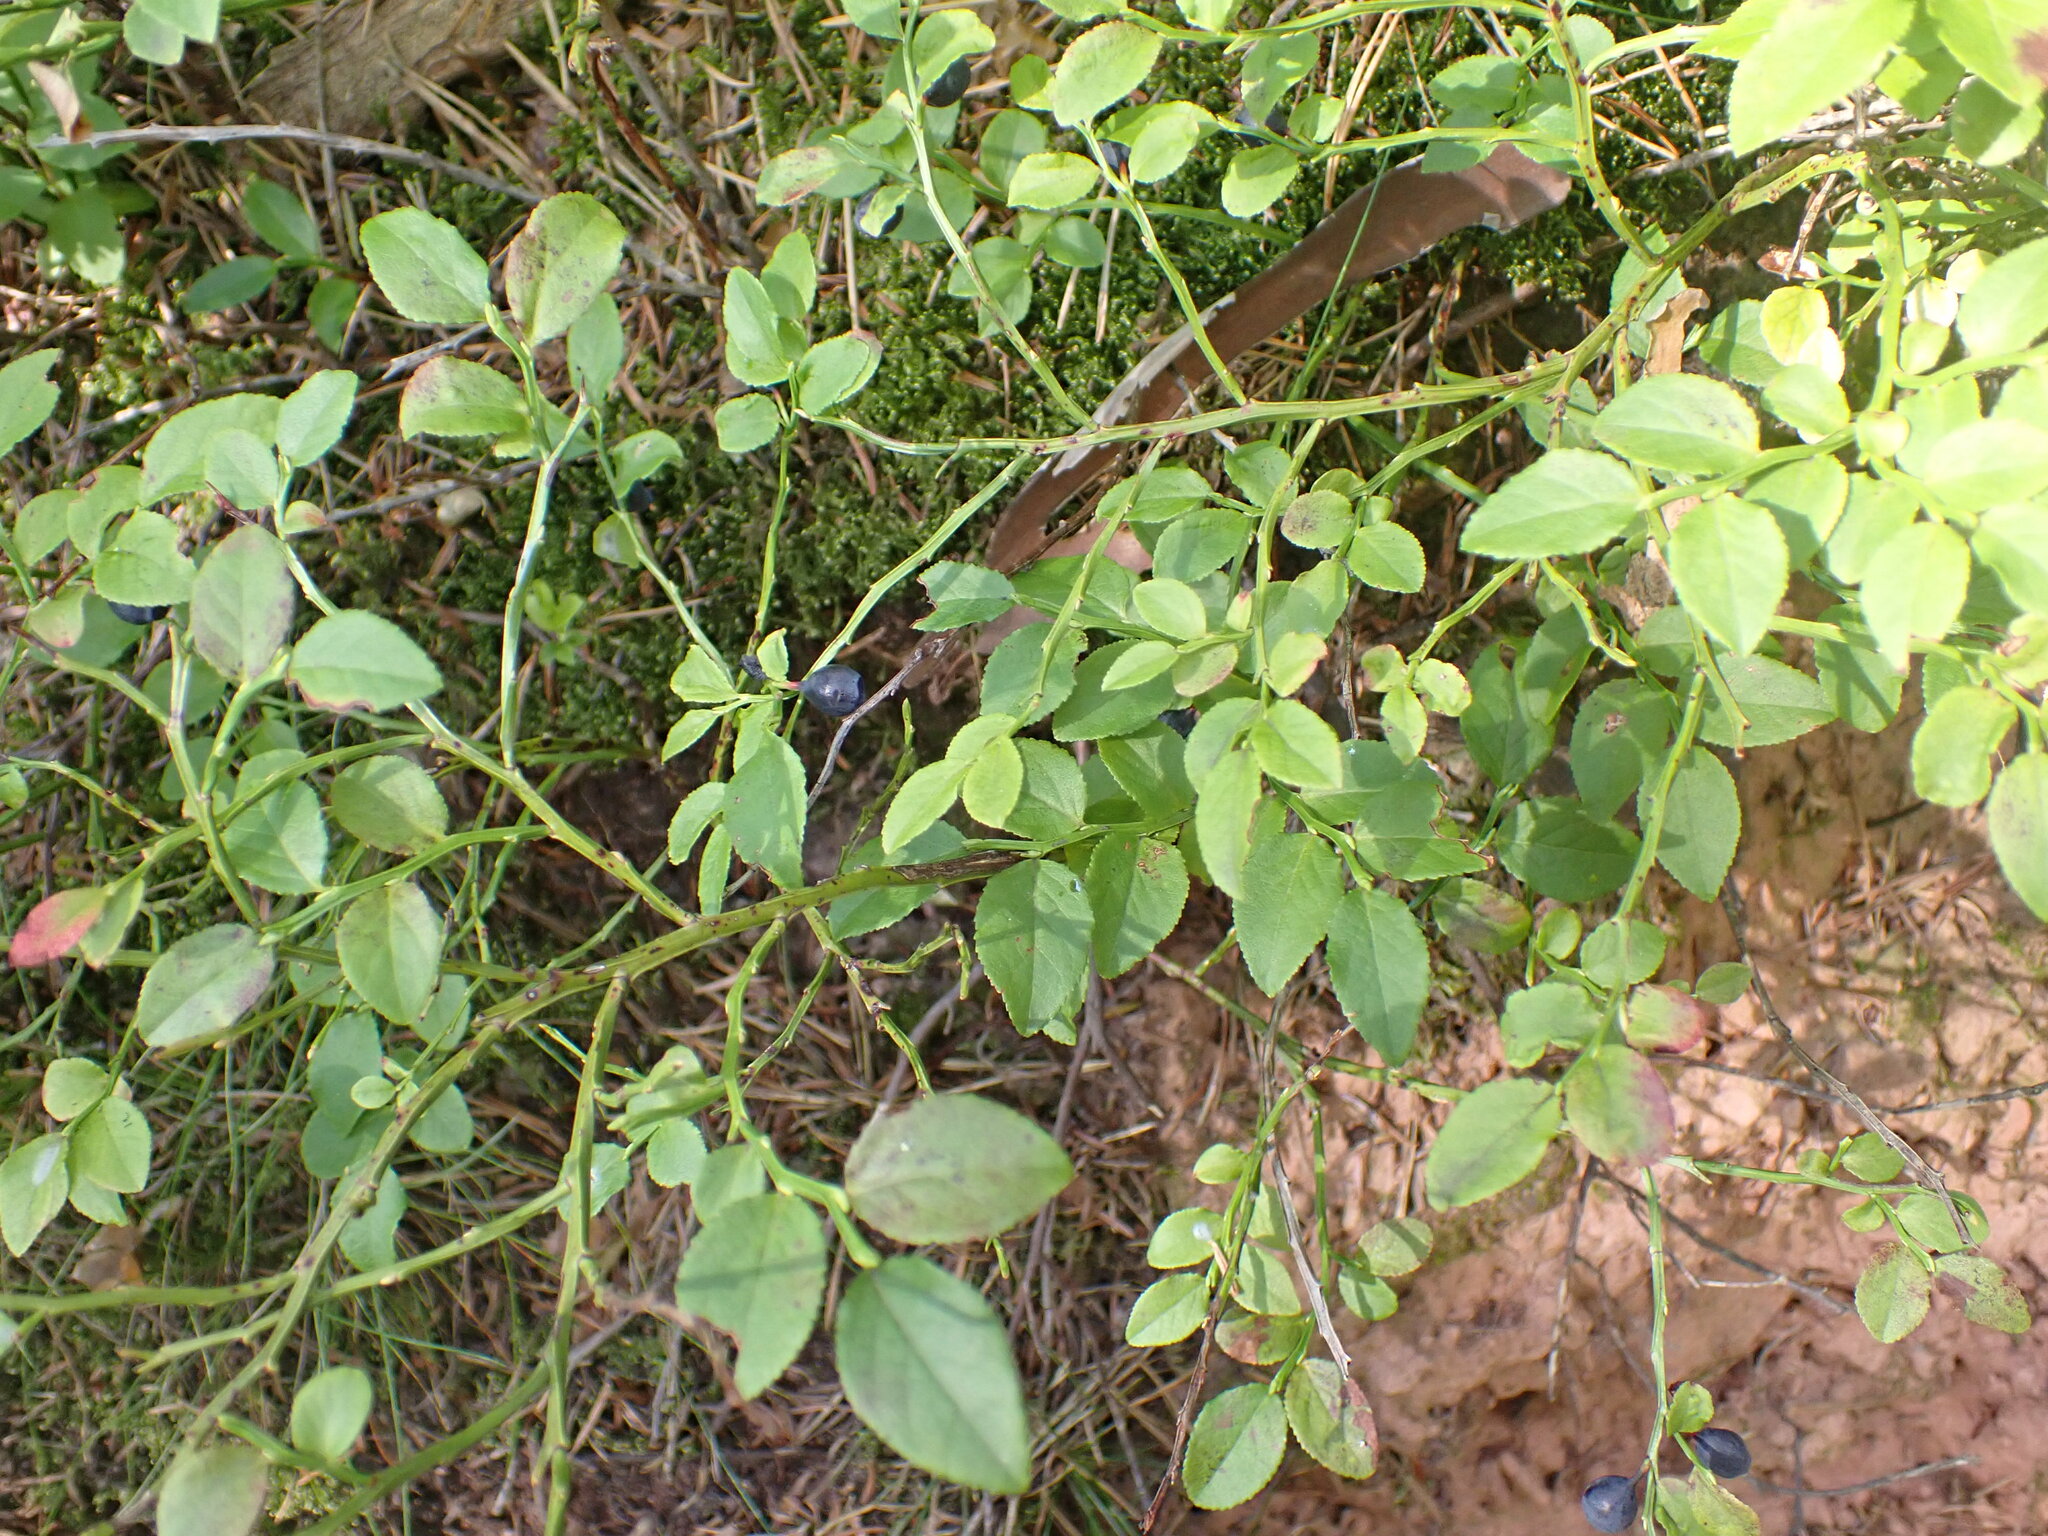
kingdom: Plantae
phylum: Tracheophyta
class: Magnoliopsida
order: Ericales
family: Ericaceae
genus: Vaccinium
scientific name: Vaccinium myrtillus
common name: Bilberry
